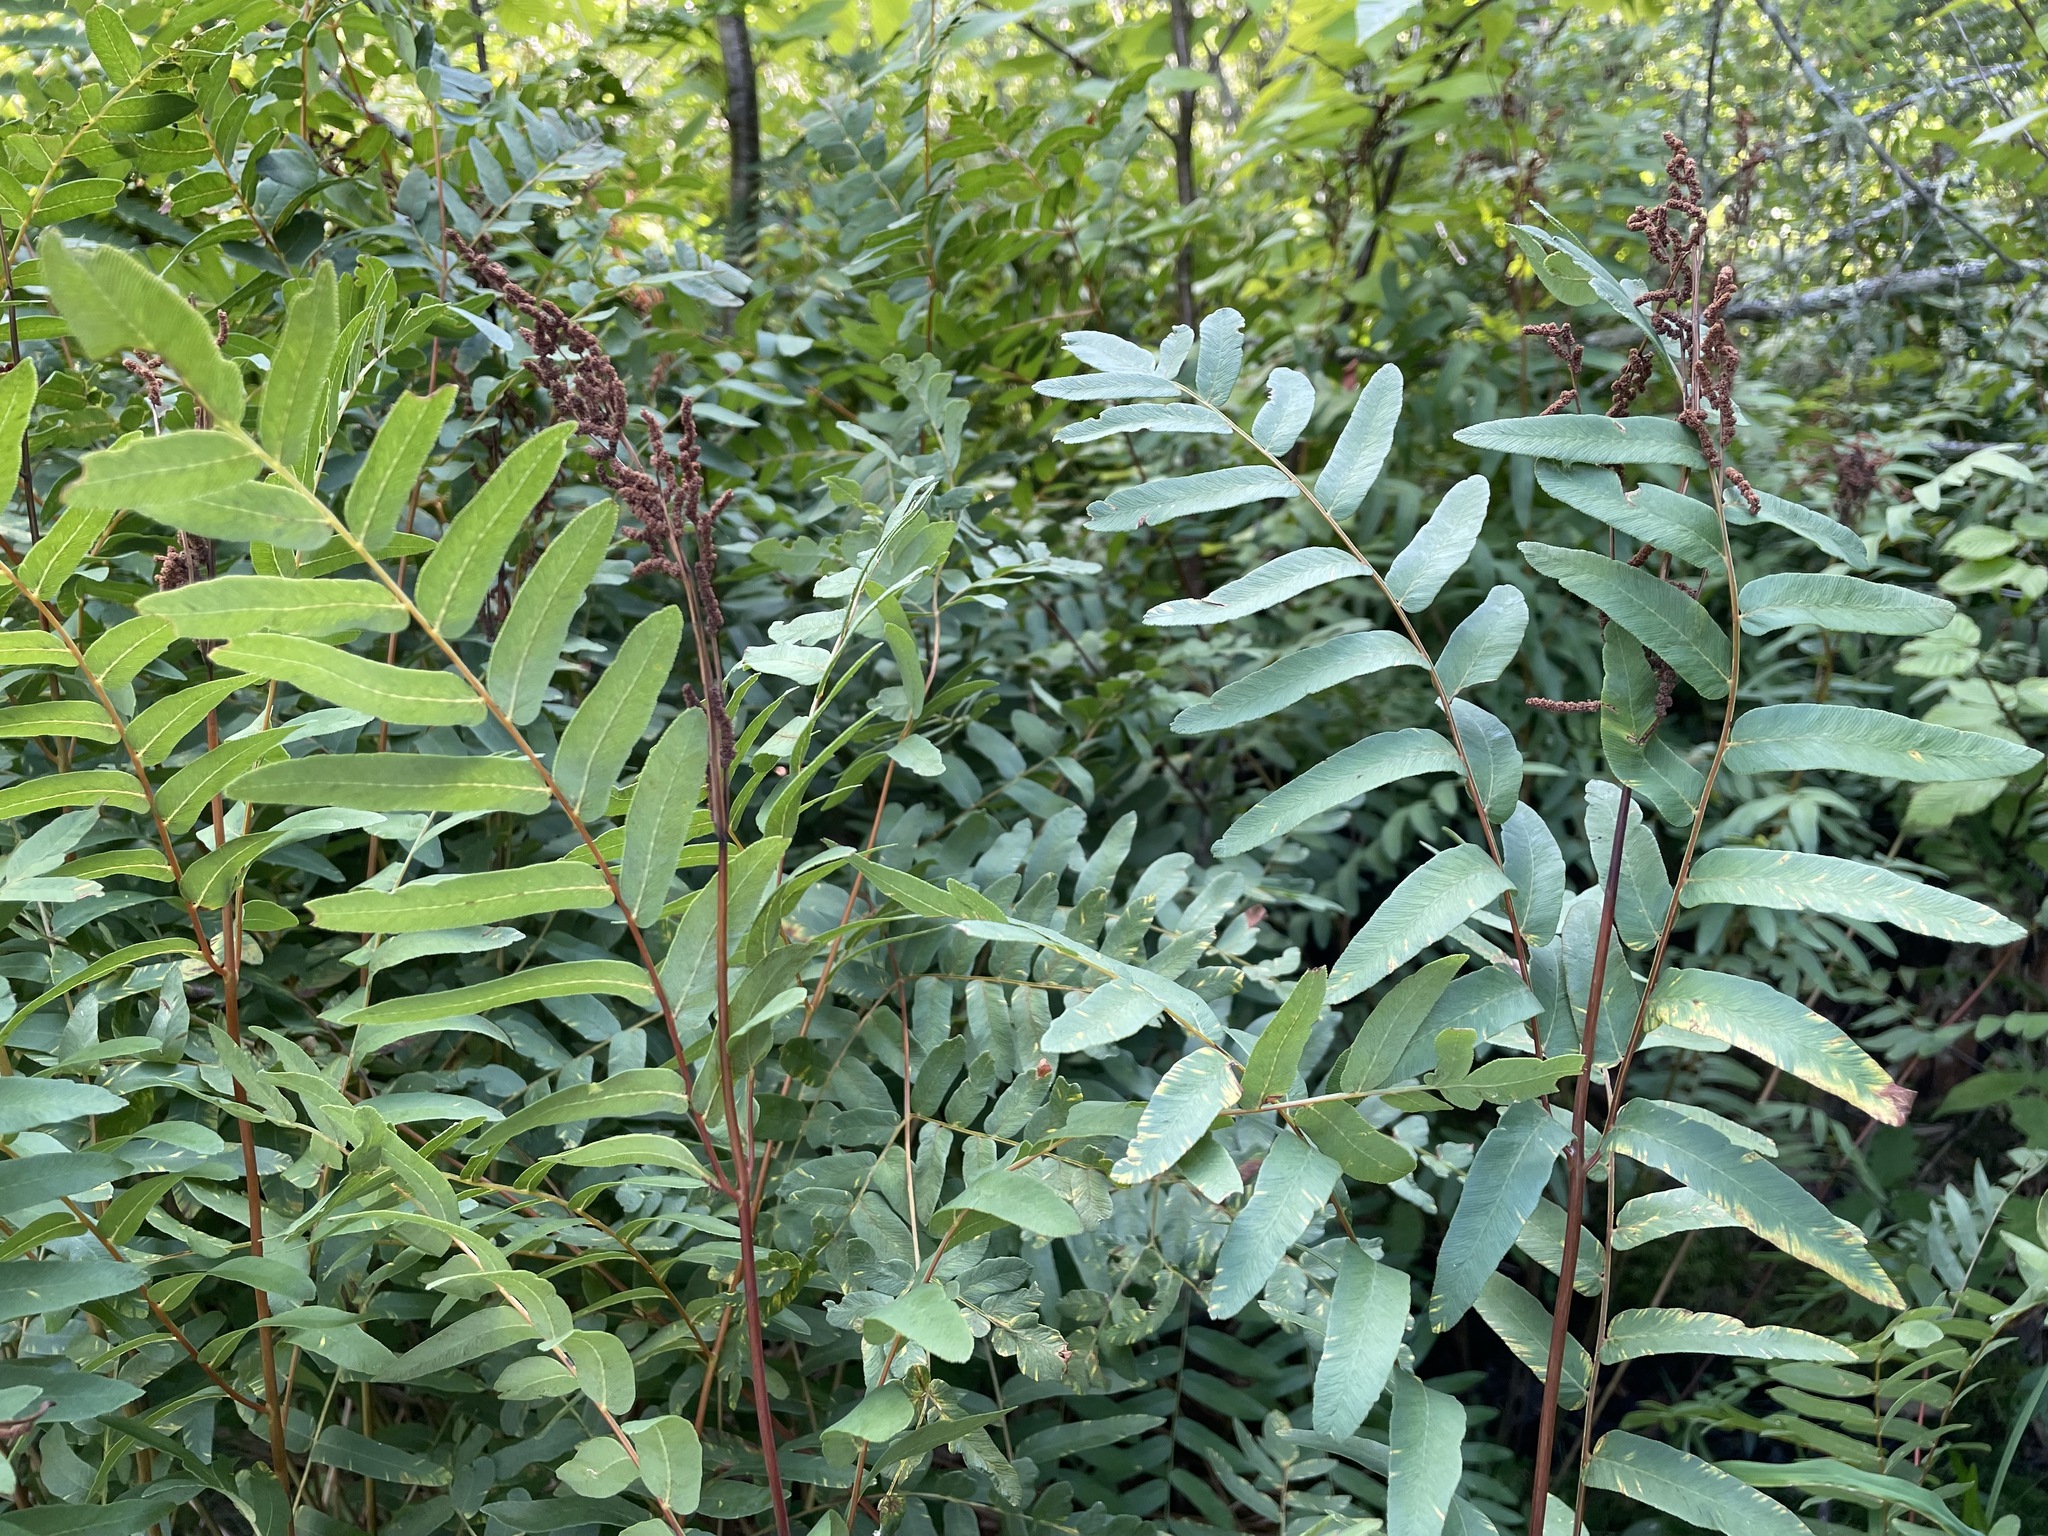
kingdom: Plantae
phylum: Tracheophyta
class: Polypodiopsida
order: Osmundales
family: Osmundaceae
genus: Osmunda
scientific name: Osmunda spectabilis
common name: American royal fern
